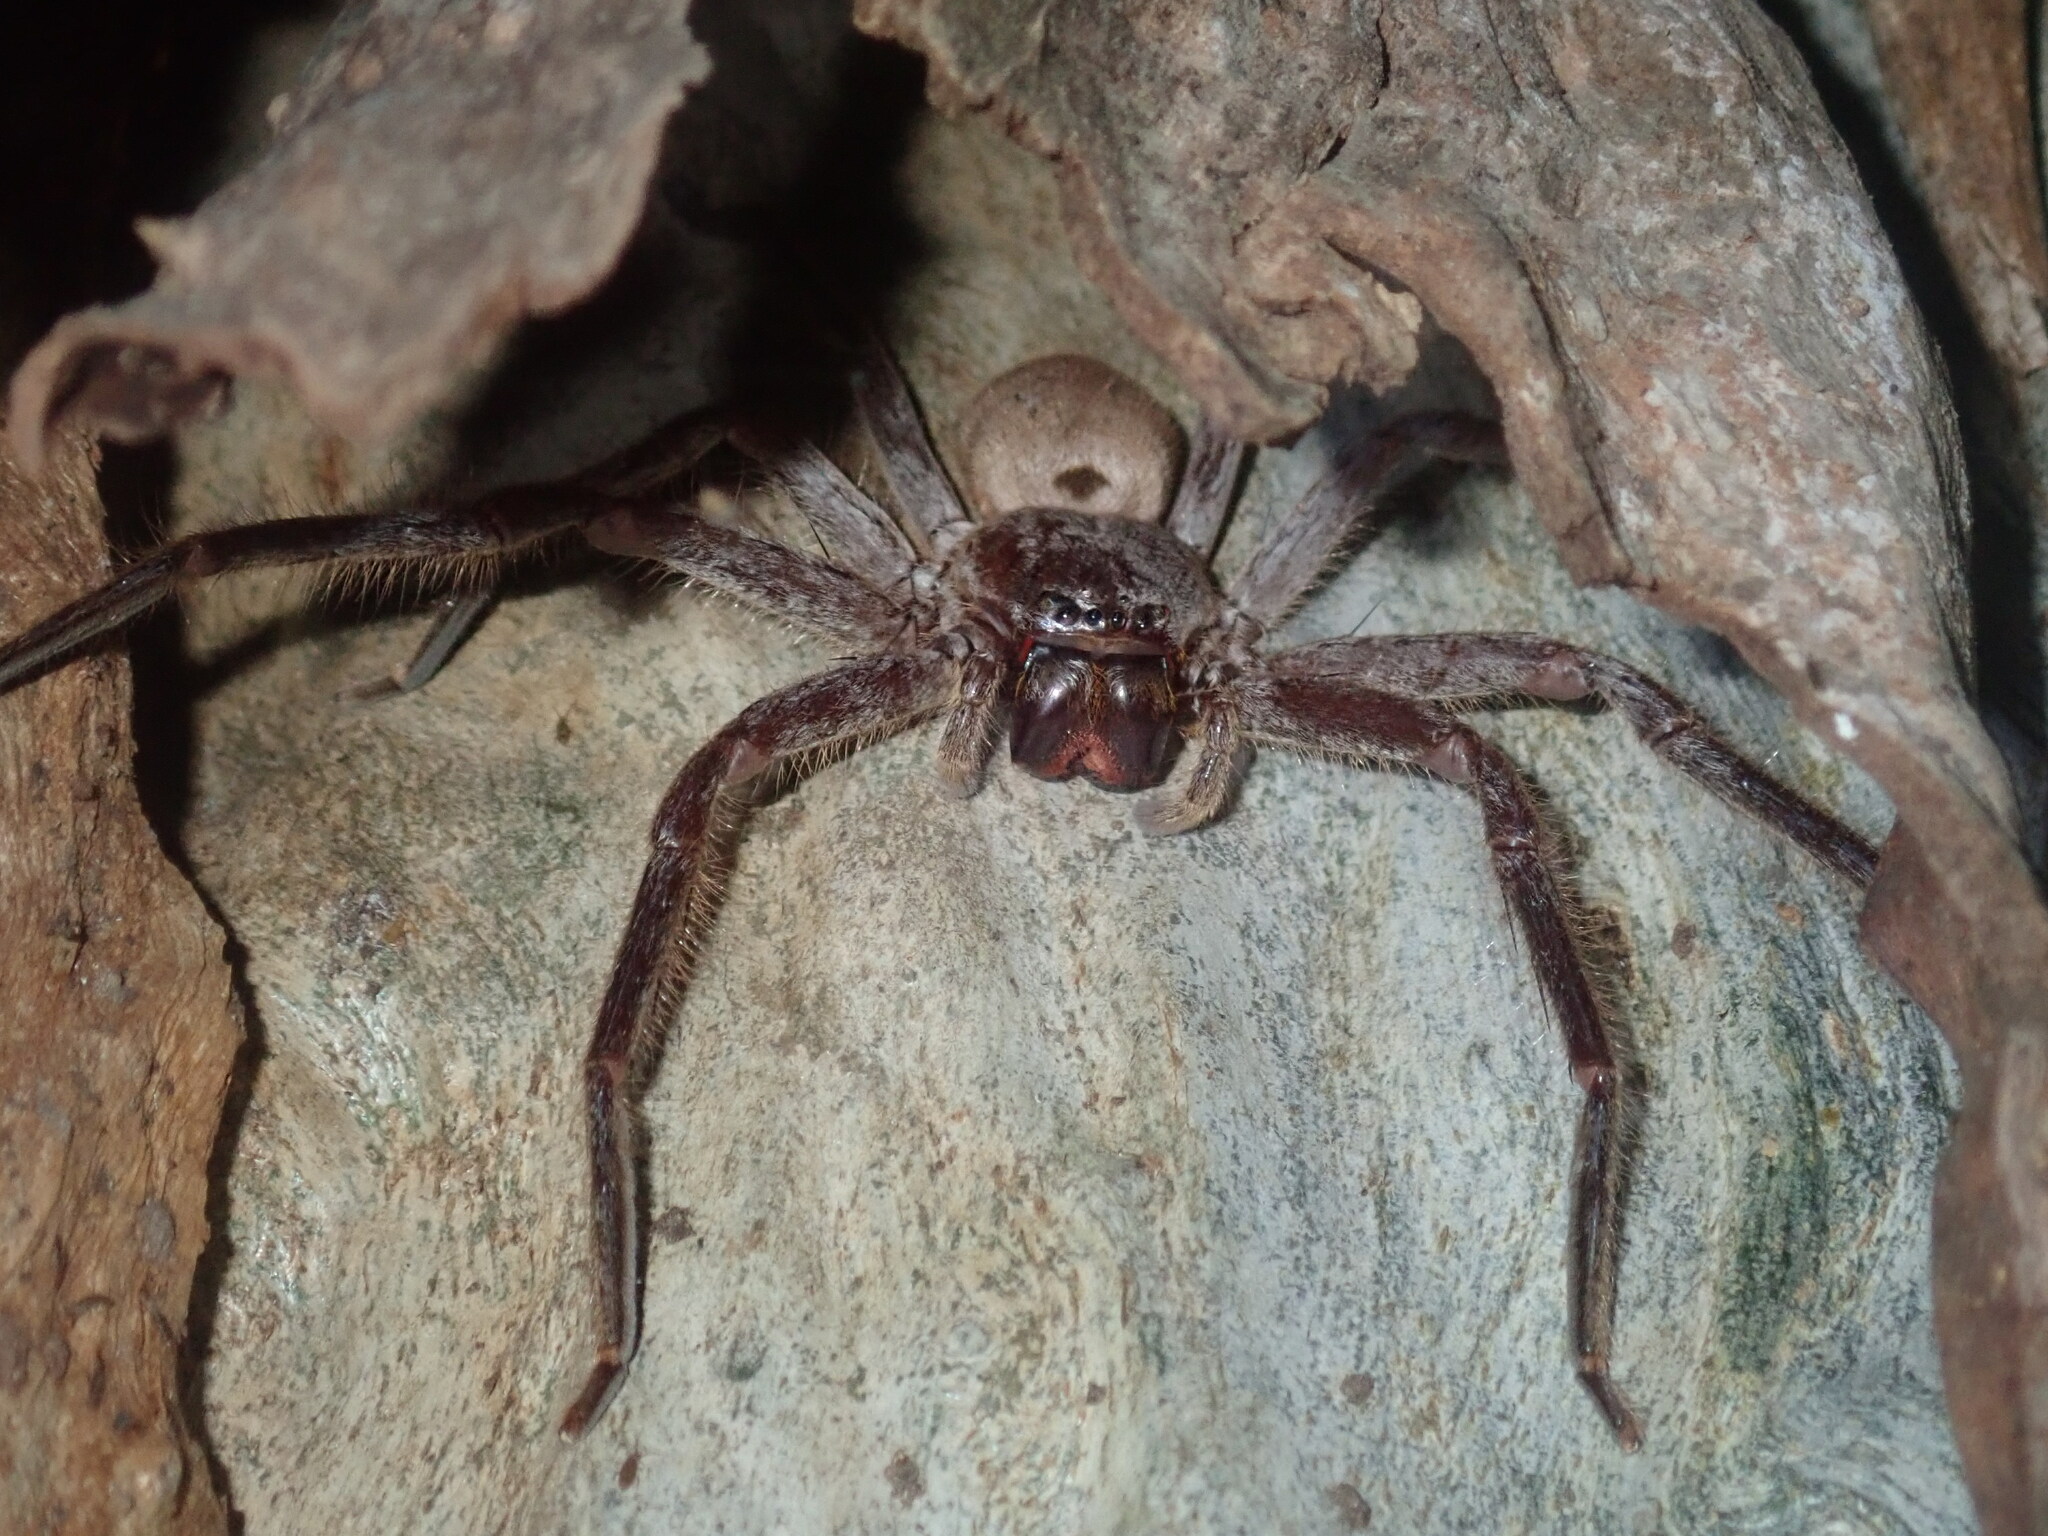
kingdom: Animalia
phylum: Arthropoda
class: Arachnida
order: Araneae
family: Sparassidae
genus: Isopeda
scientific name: Isopeda villosa
